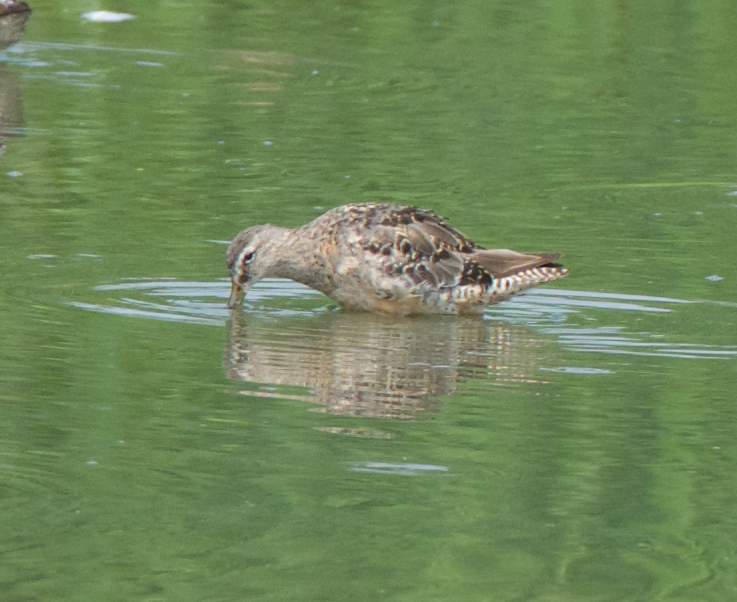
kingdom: Animalia
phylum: Chordata
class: Aves
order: Charadriiformes
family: Scolopacidae
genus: Limnodromus
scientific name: Limnodromus scolopaceus
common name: Long-billed dowitcher
